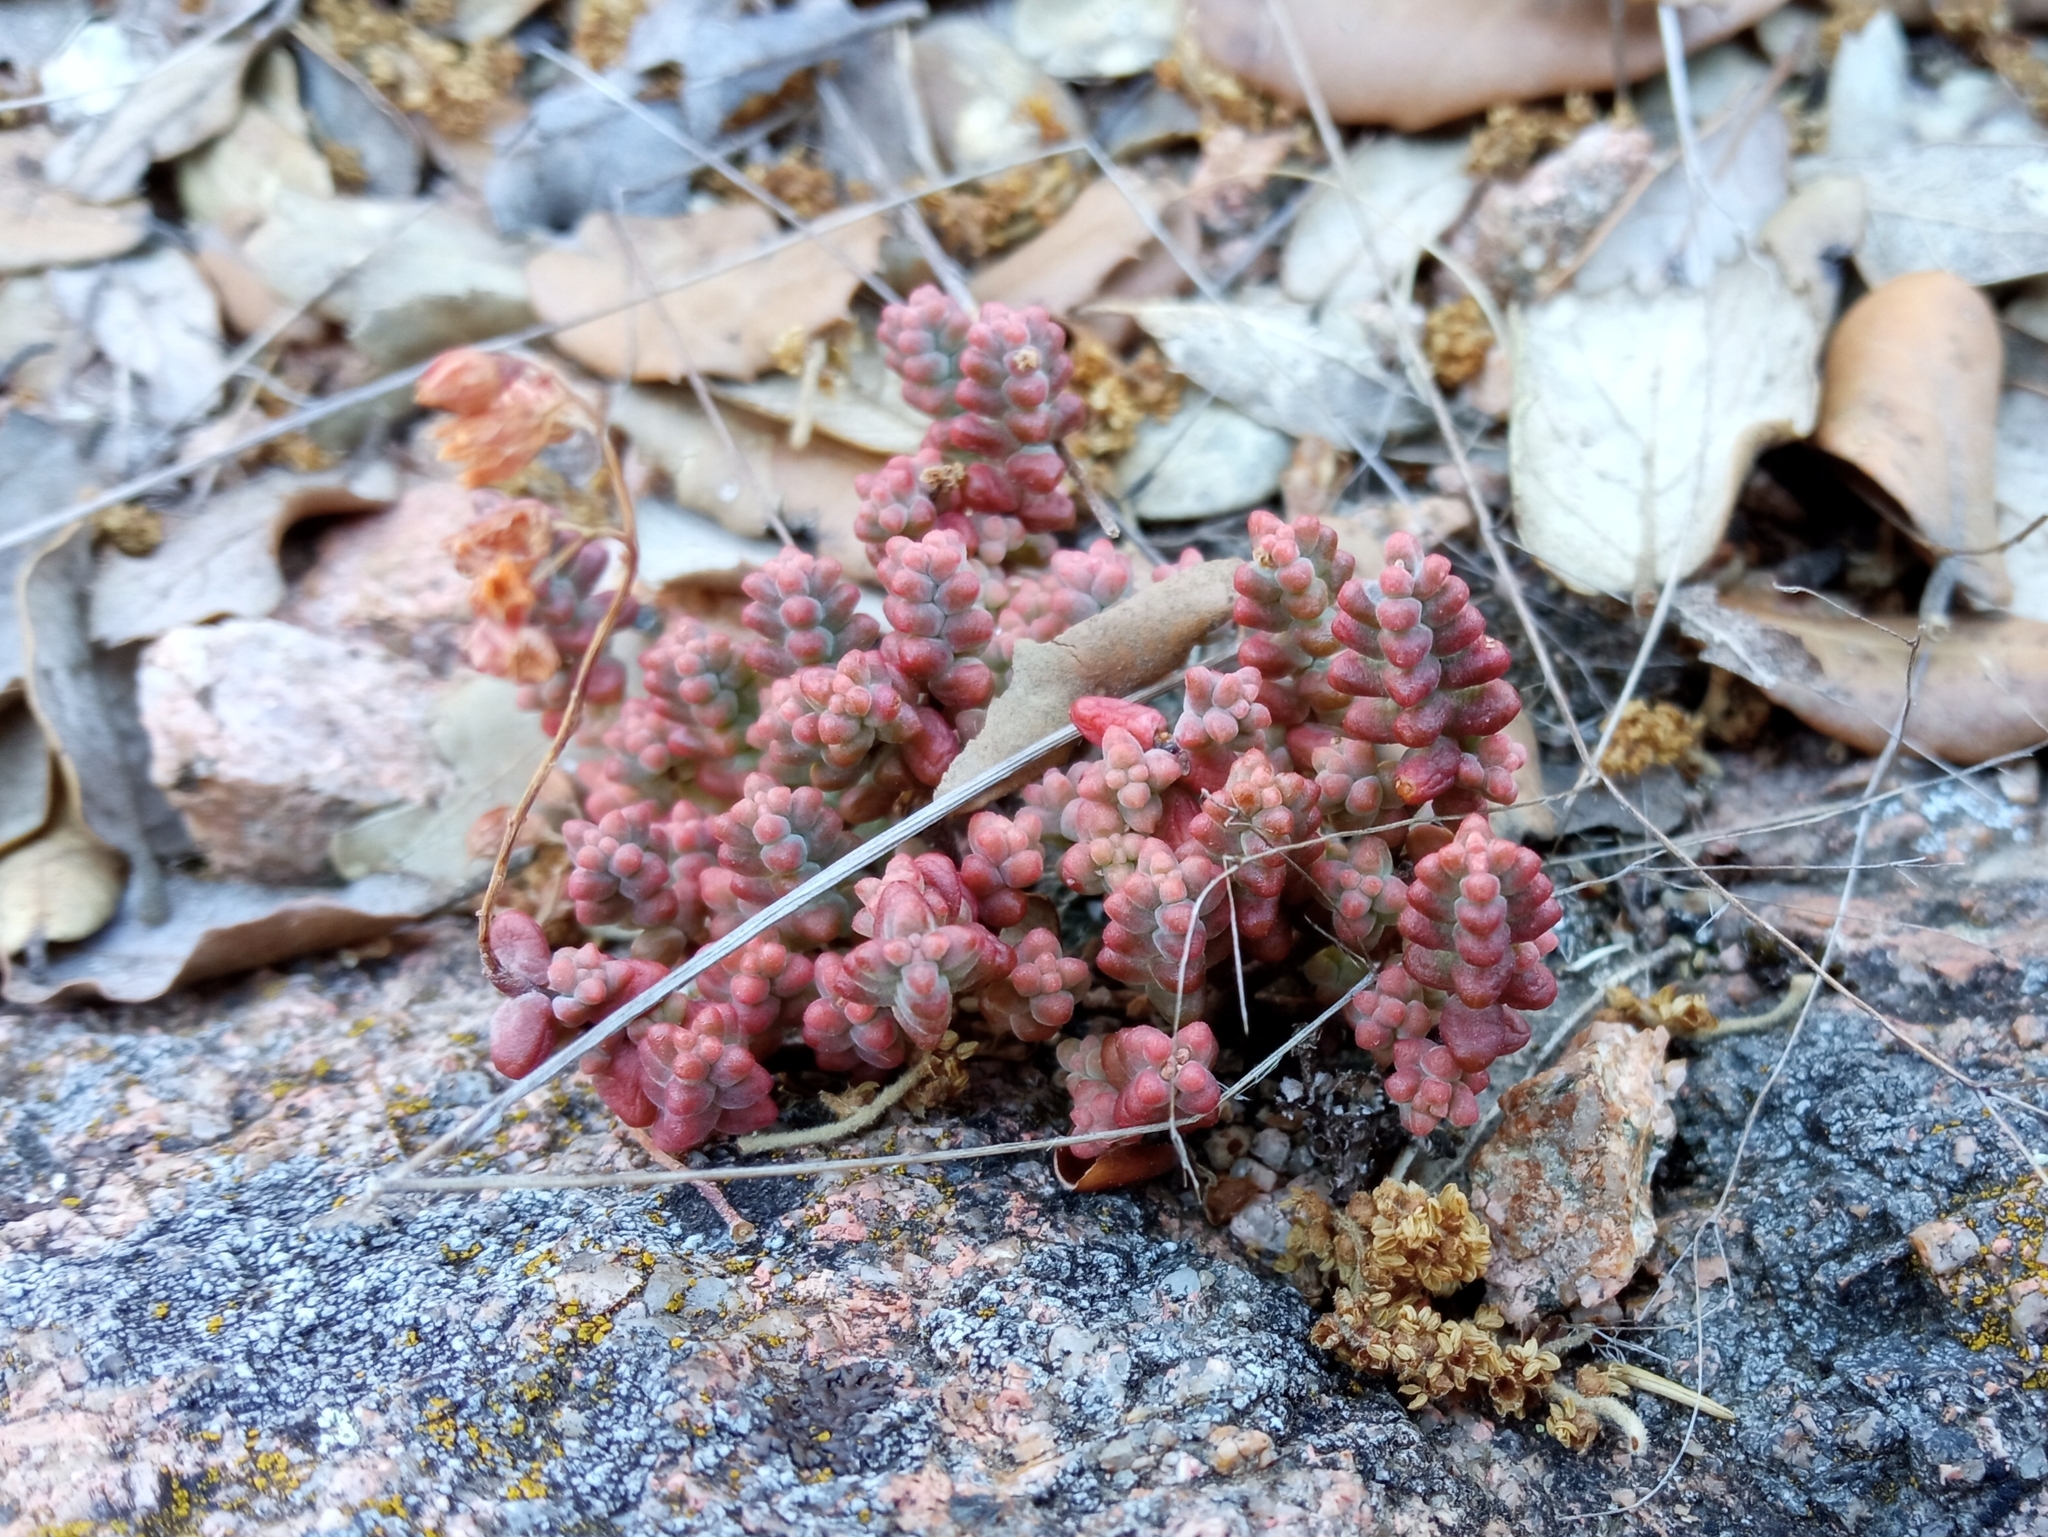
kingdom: Plantae
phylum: Tracheophyta
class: Magnoliopsida
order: Saxifragales
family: Crassulaceae
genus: Sedum
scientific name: Sedum brevifolium
